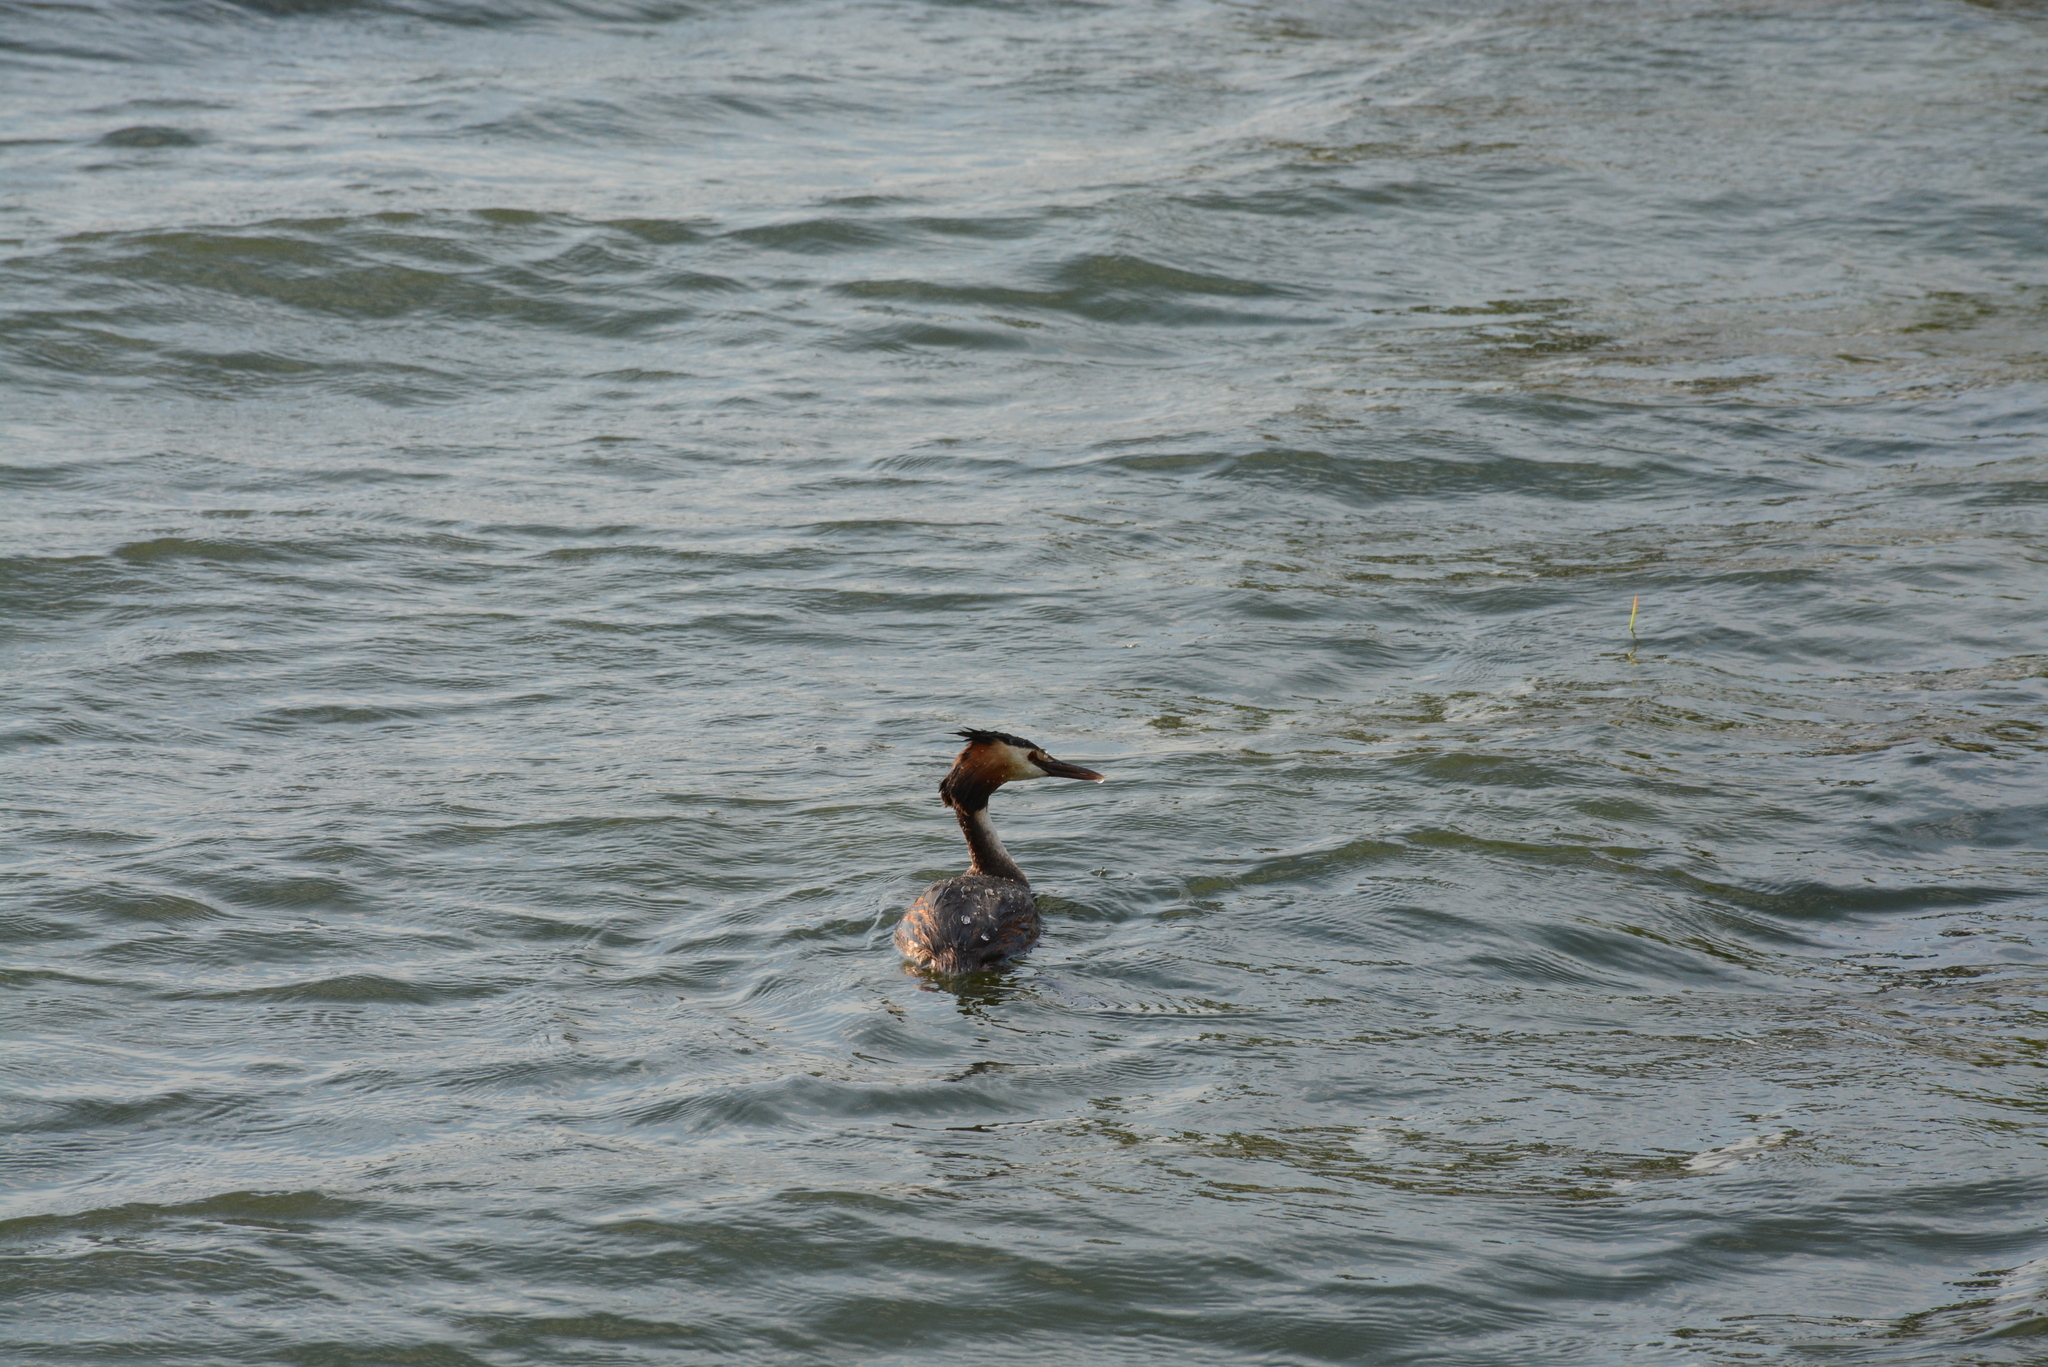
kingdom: Animalia
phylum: Chordata
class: Aves
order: Podicipediformes
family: Podicipedidae
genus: Podiceps
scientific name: Podiceps cristatus
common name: Great crested grebe
